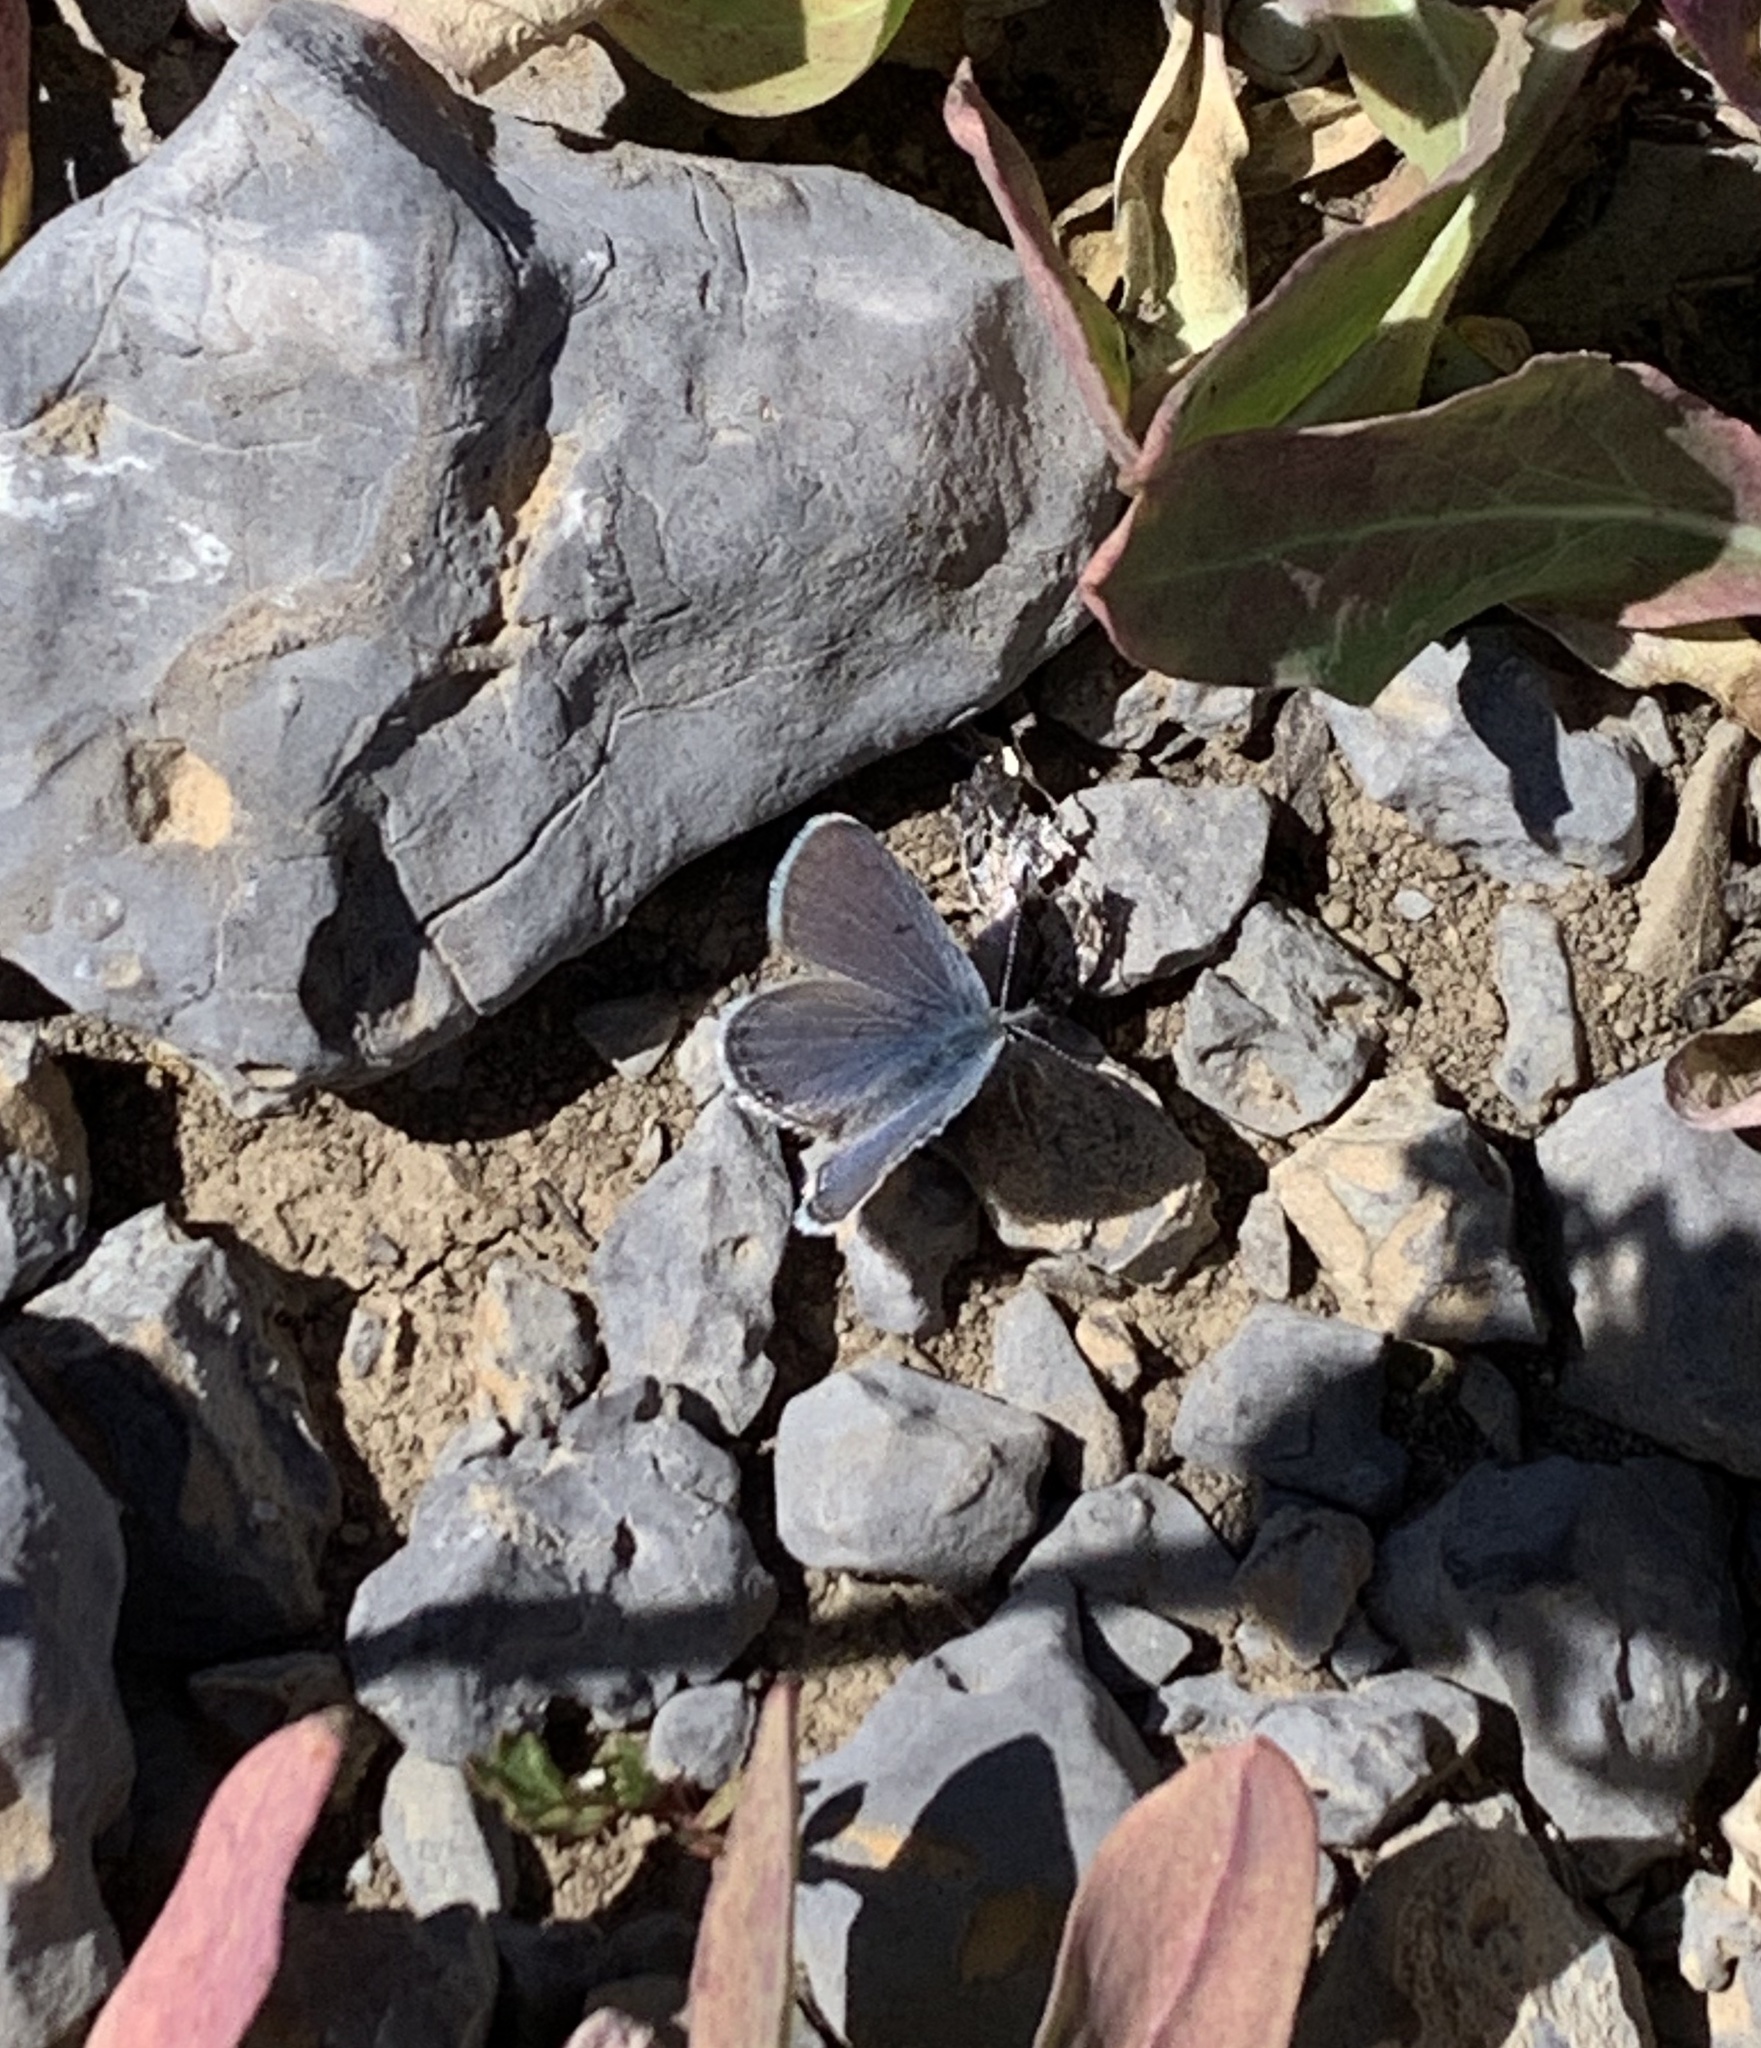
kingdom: Animalia
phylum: Arthropoda
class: Insecta
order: Lepidoptera
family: Lycaenidae
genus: Icaricia
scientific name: Icaricia shasta
